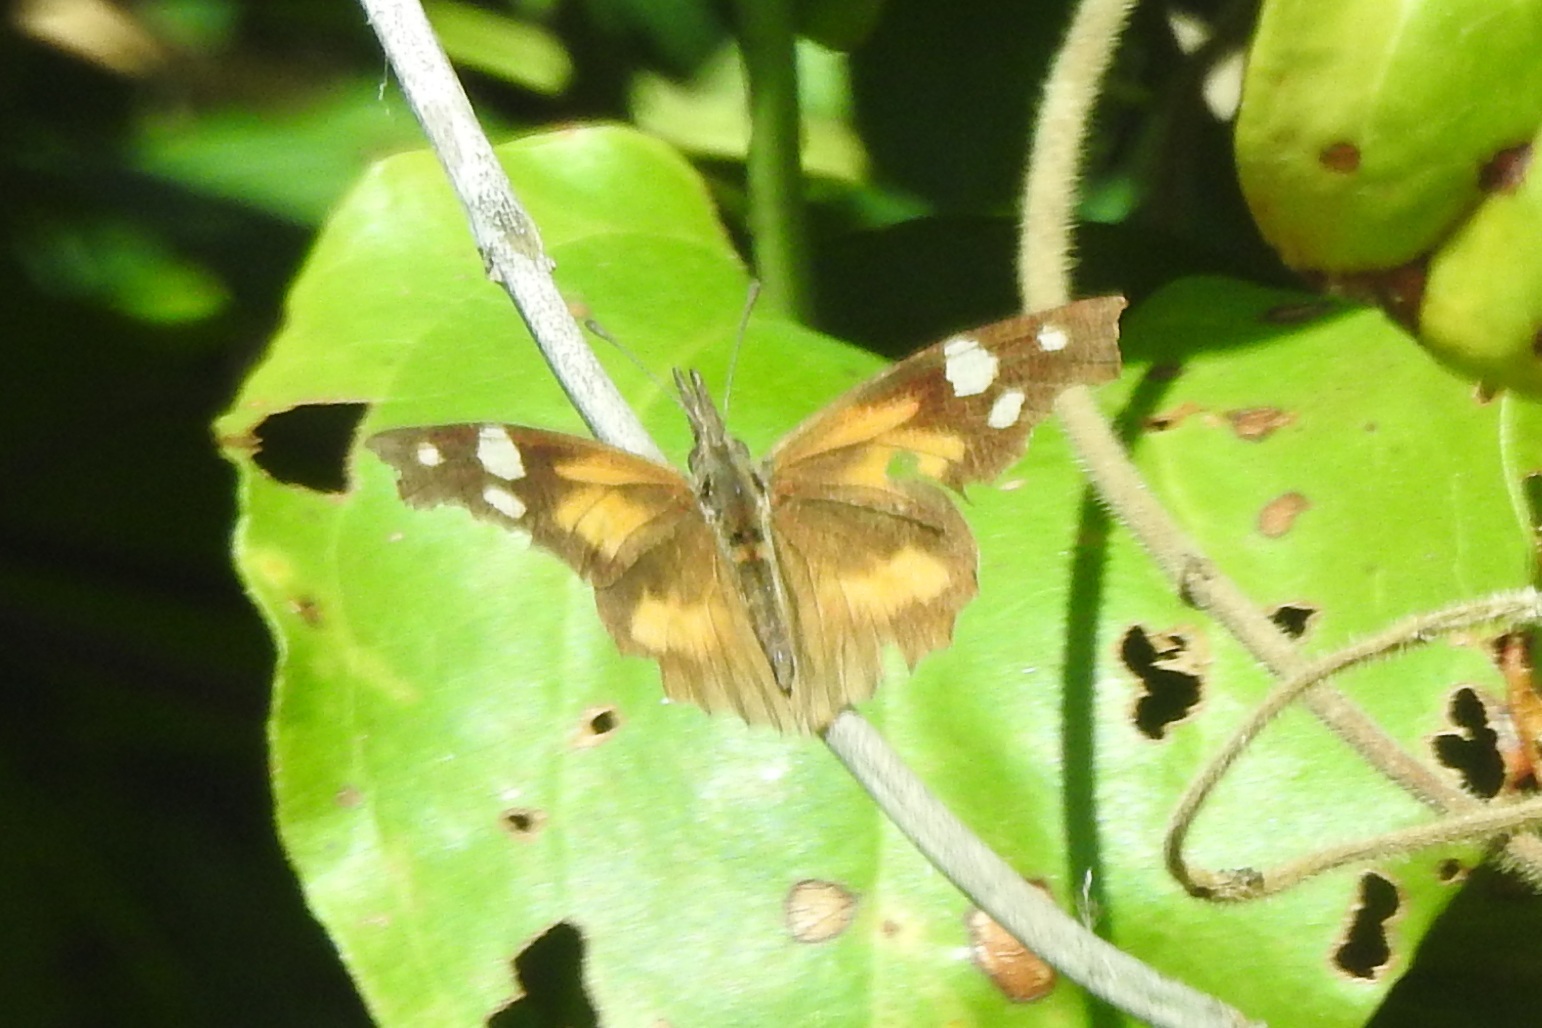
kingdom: Animalia
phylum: Arthropoda
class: Insecta
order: Lepidoptera
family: Nymphalidae
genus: Libytheana
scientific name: Libytheana carinenta
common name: American snout
